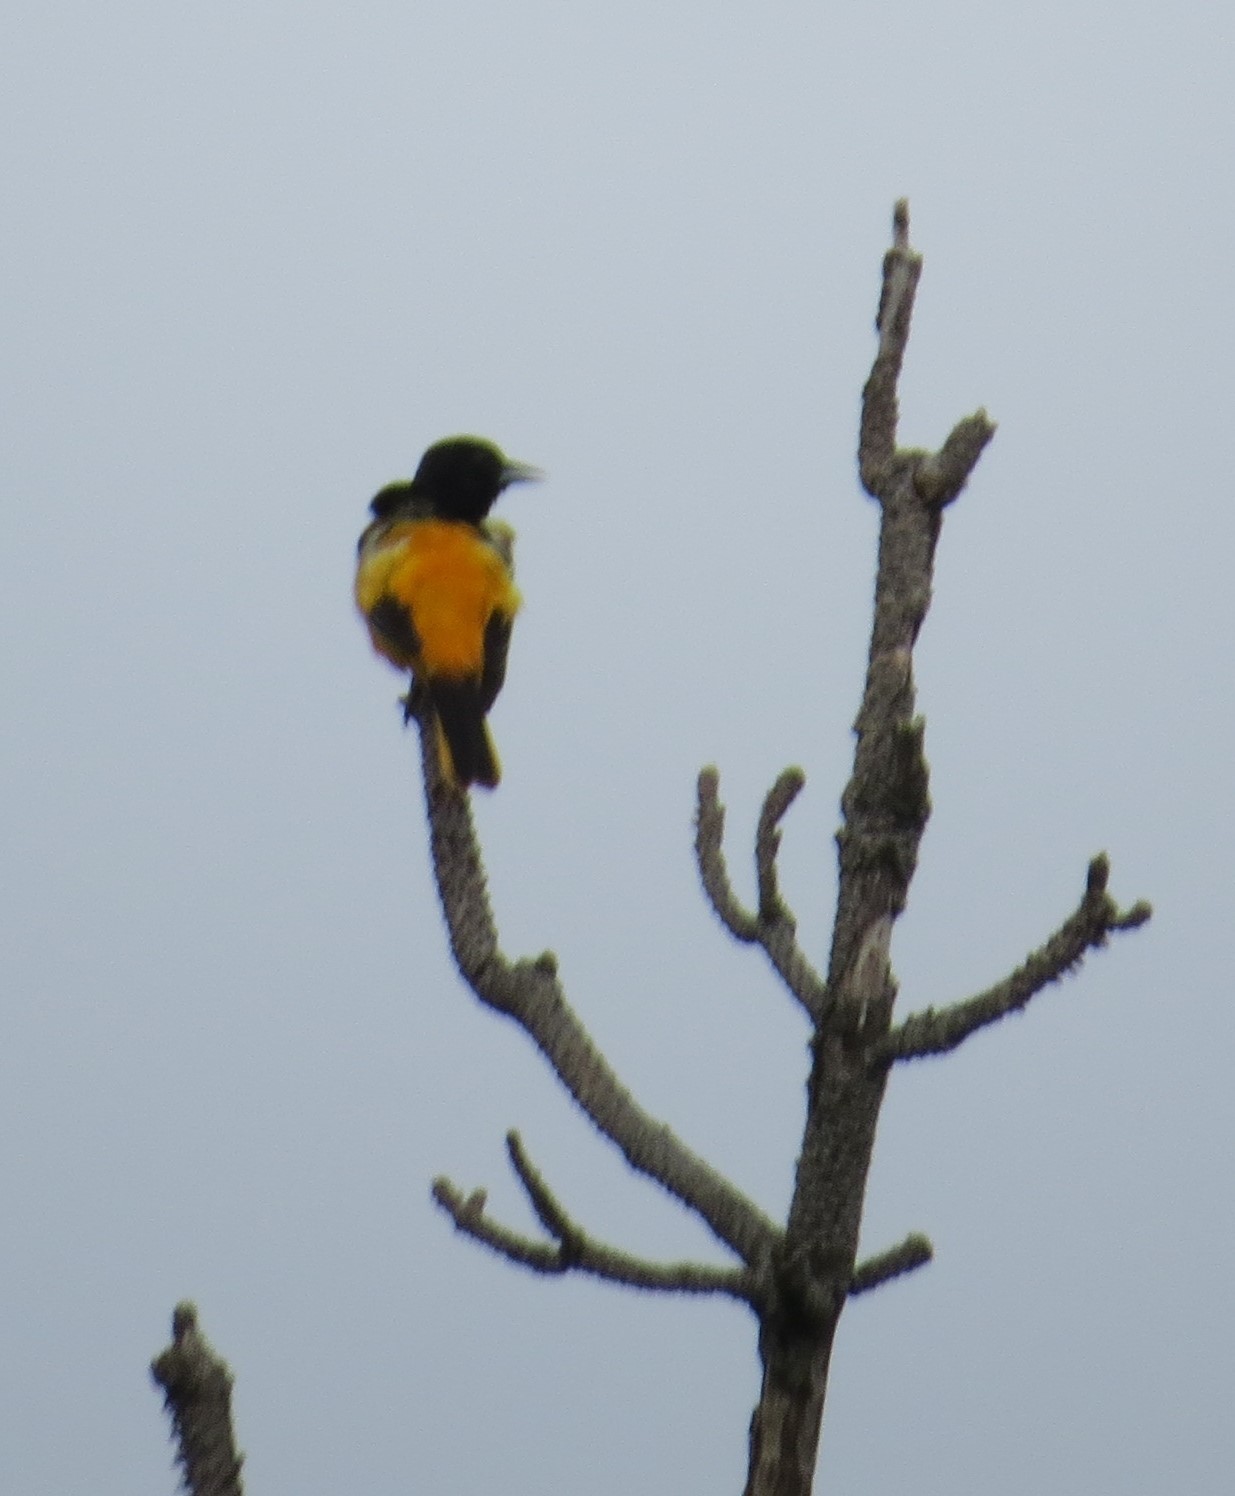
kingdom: Animalia
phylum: Chordata
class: Aves
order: Passeriformes
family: Icteridae
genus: Icterus
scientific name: Icterus galbula
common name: Baltimore oriole
